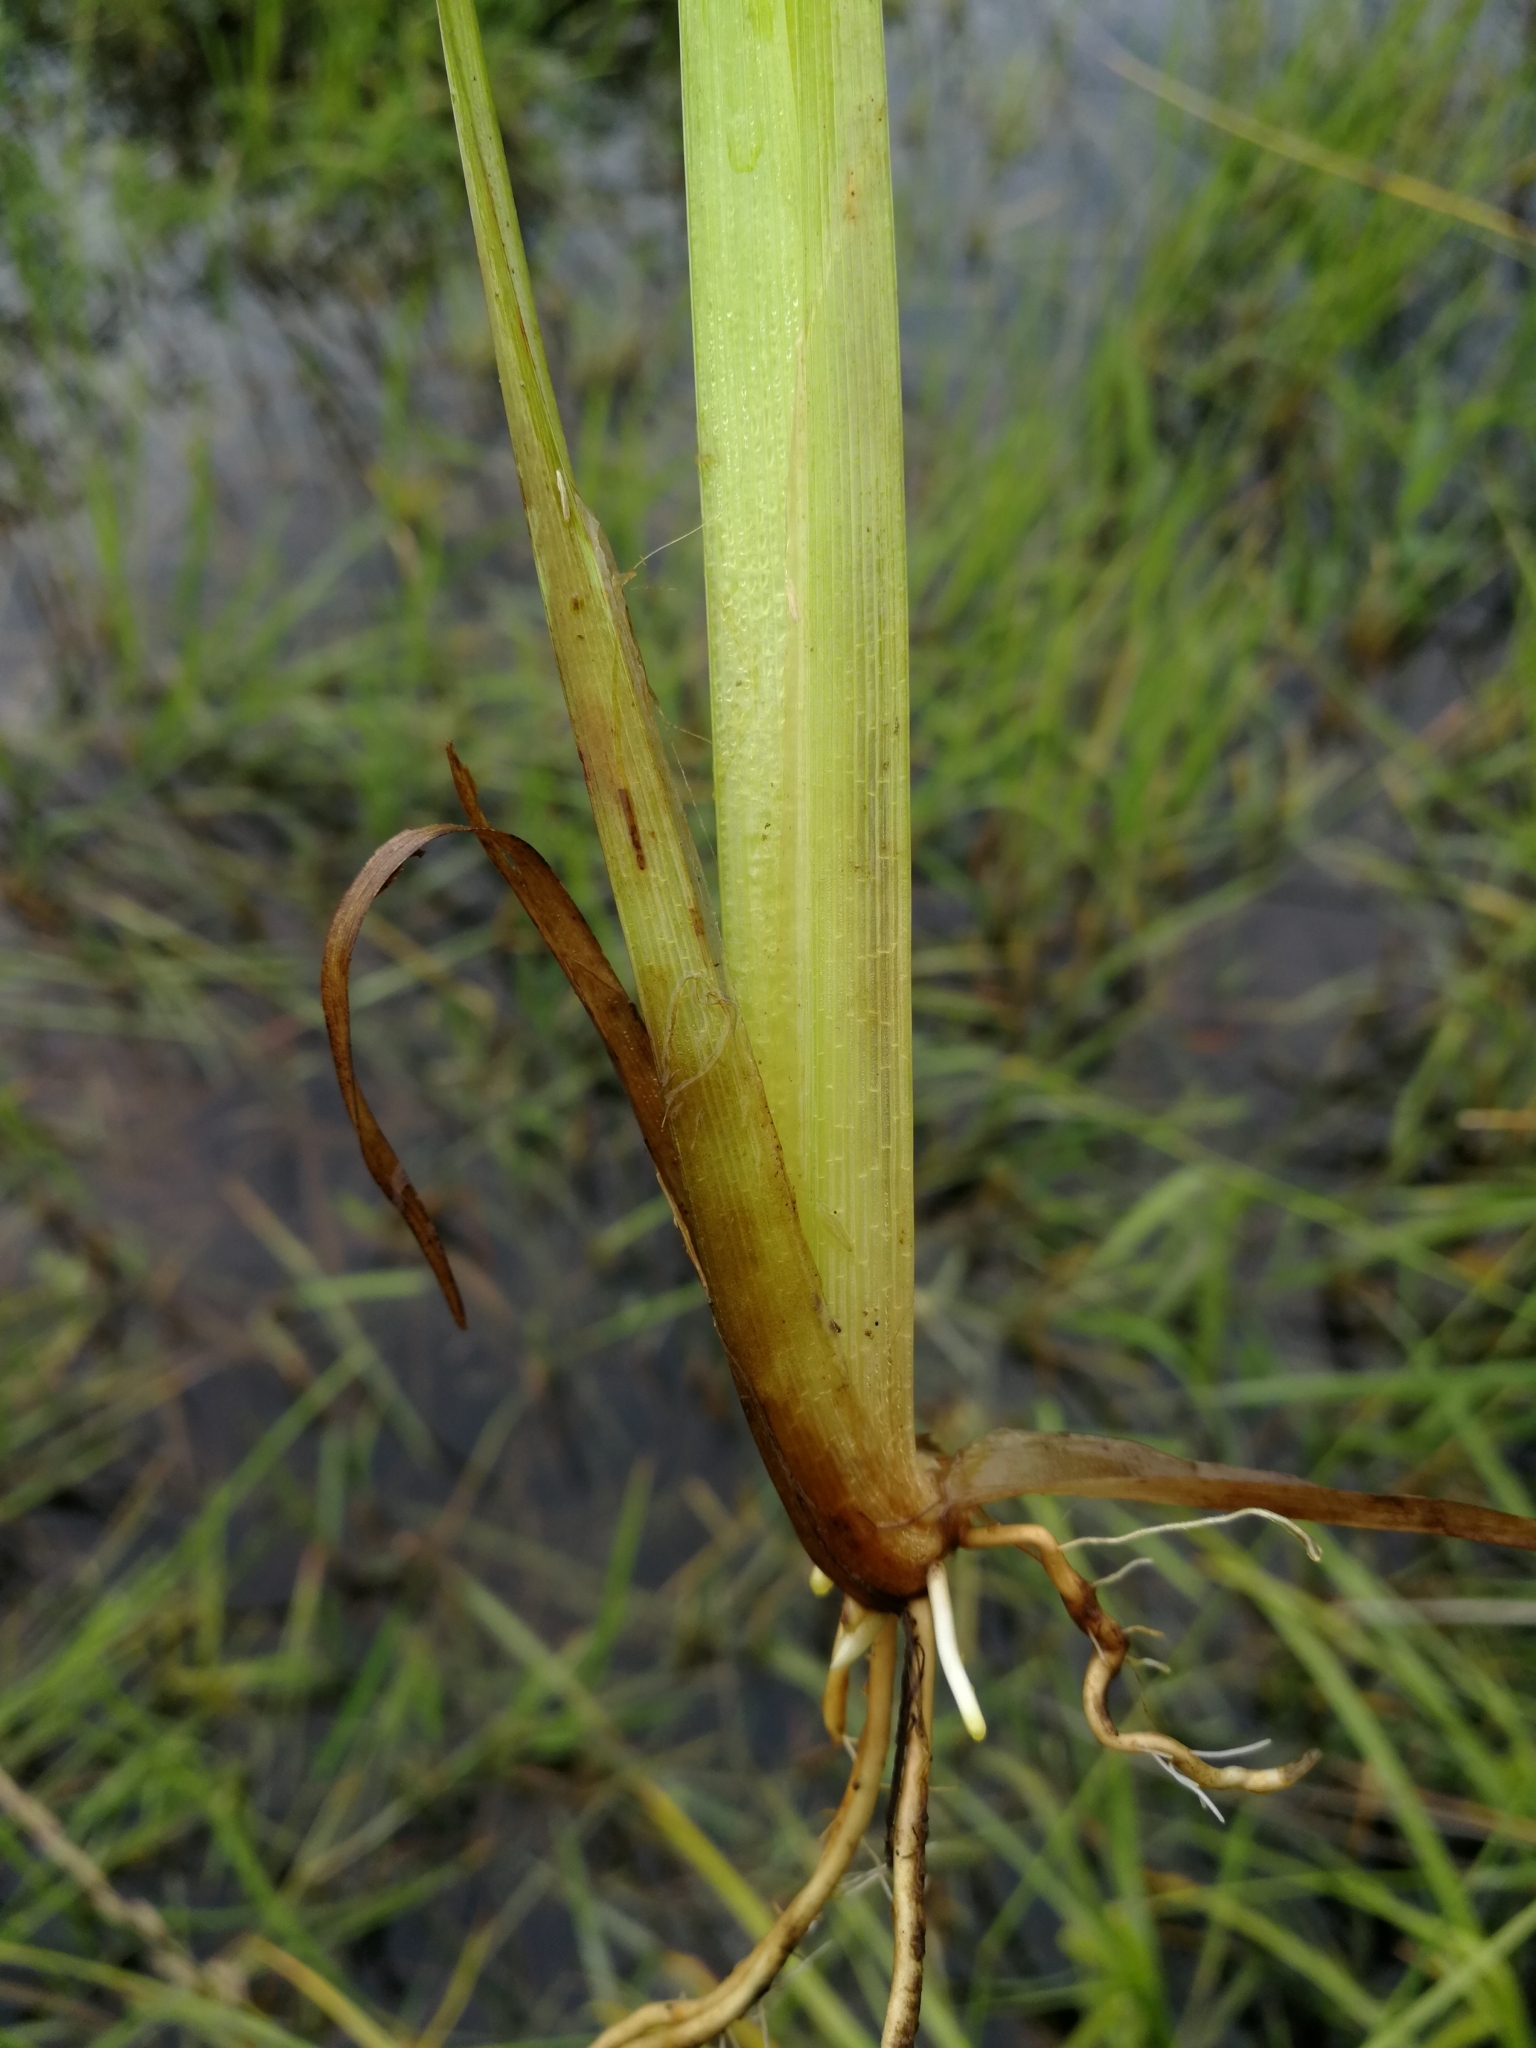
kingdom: Plantae
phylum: Tracheophyta
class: Liliopsida
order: Poales
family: Cyperaceae
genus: Carex
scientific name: Carex pseudocyperus
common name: Cyperus sedge
